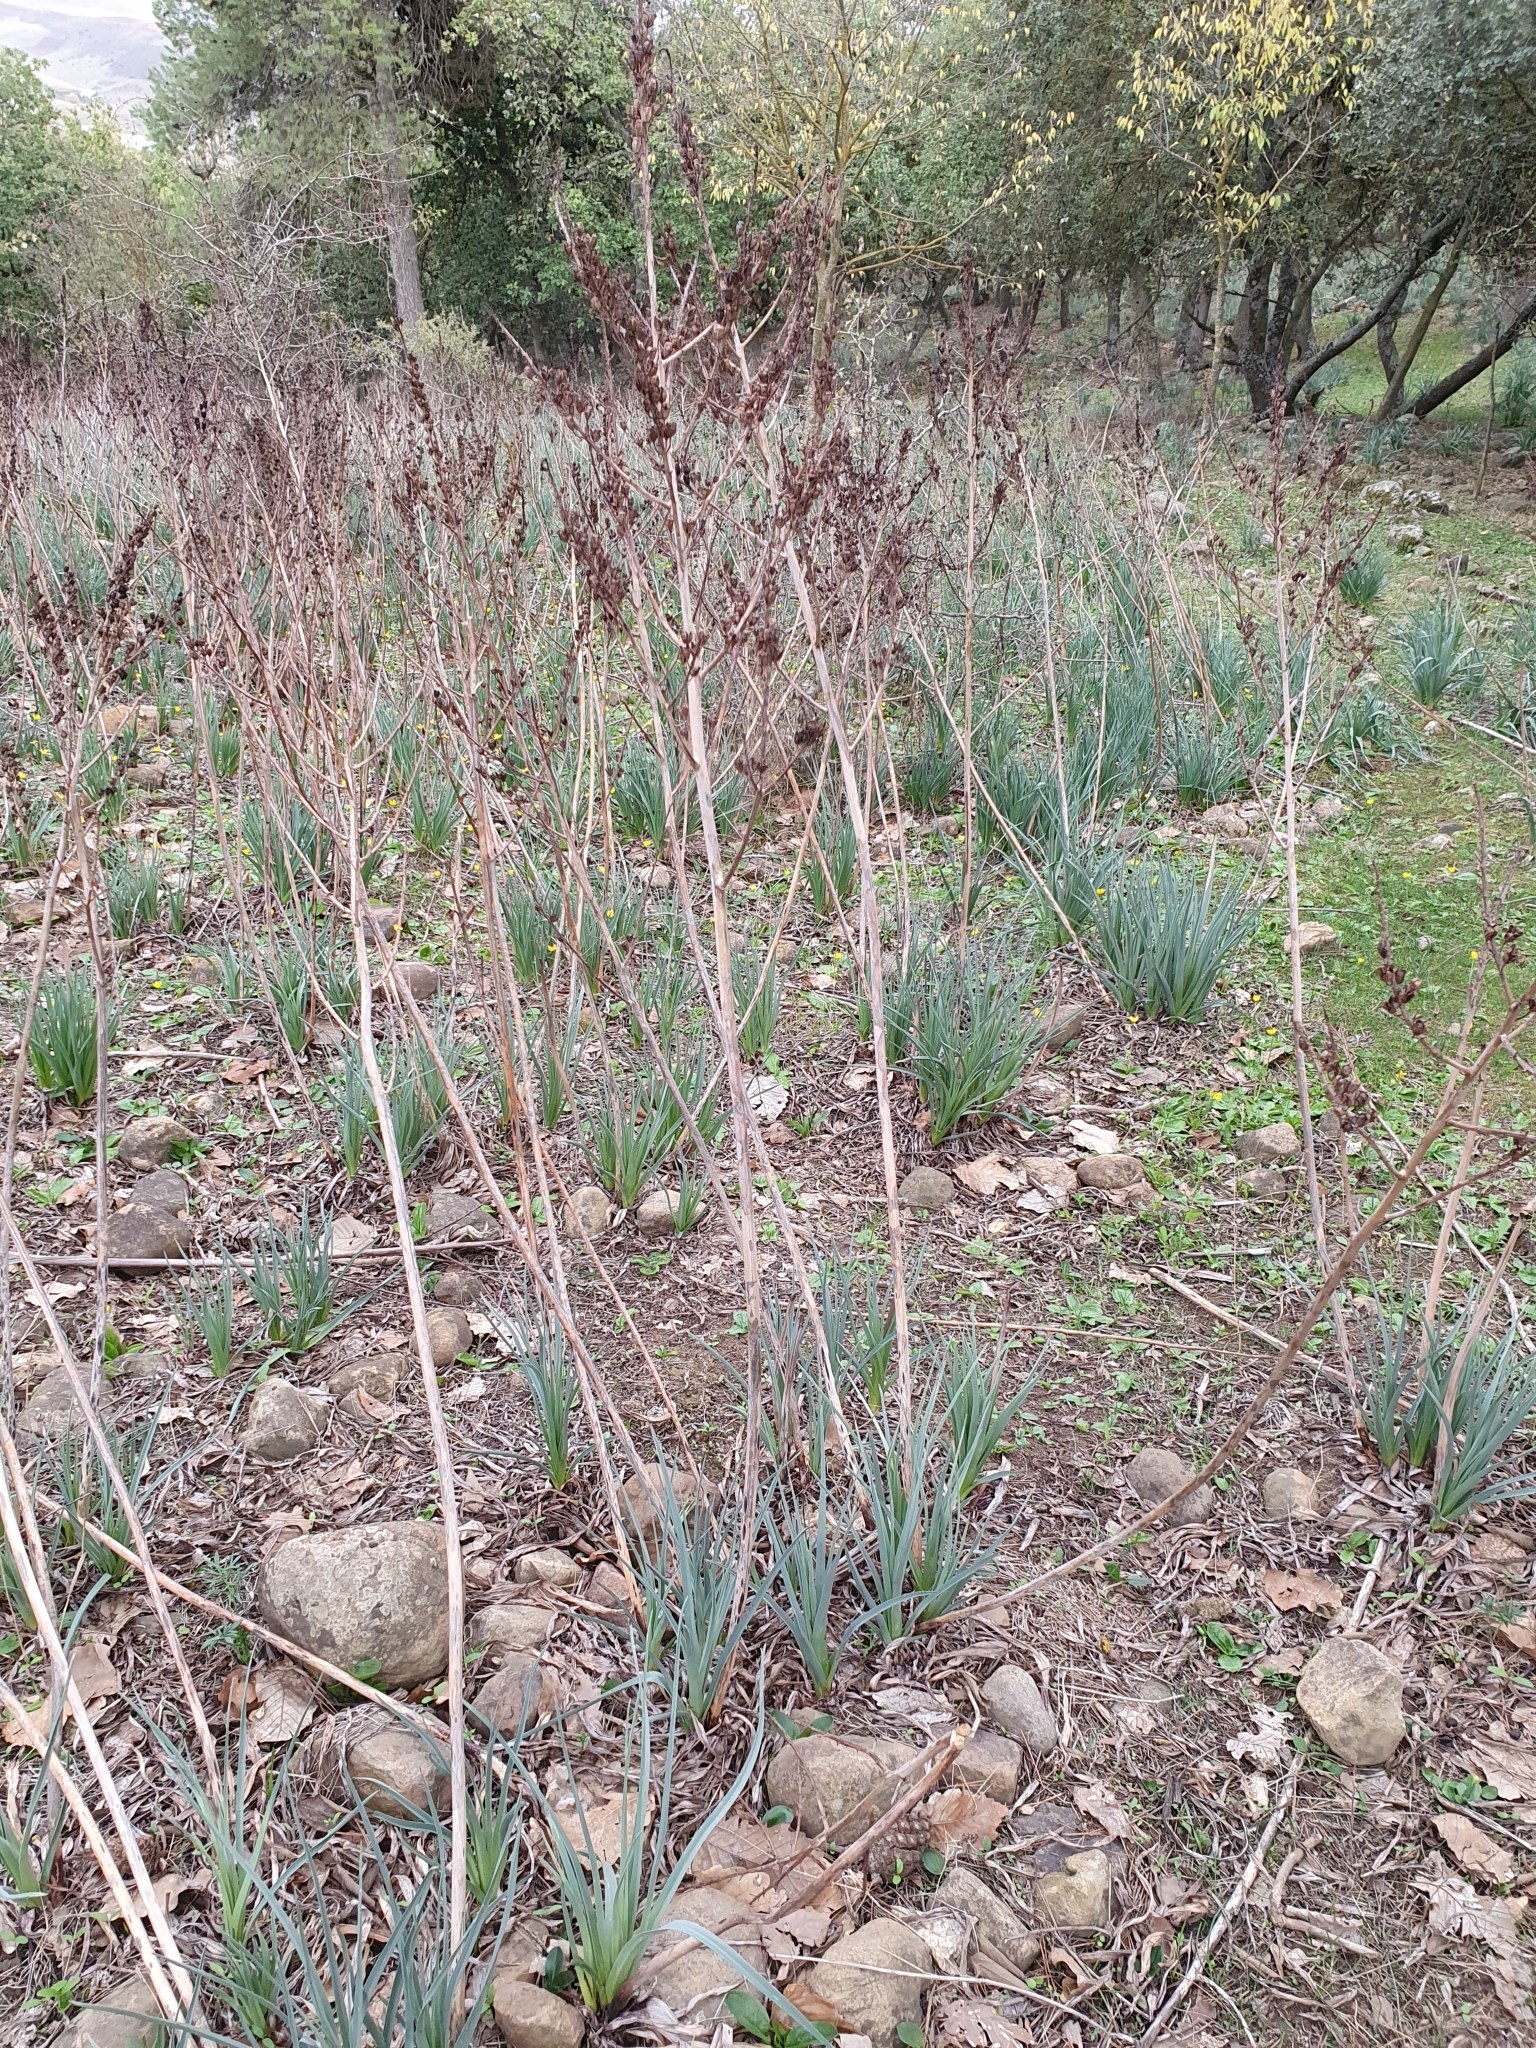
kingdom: Plantae
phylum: Tracheophyta
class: Liliopsida
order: Asparagales
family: Asphodelaceae
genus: Asphodelus
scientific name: Asphodelus ramosus
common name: Silverrod
